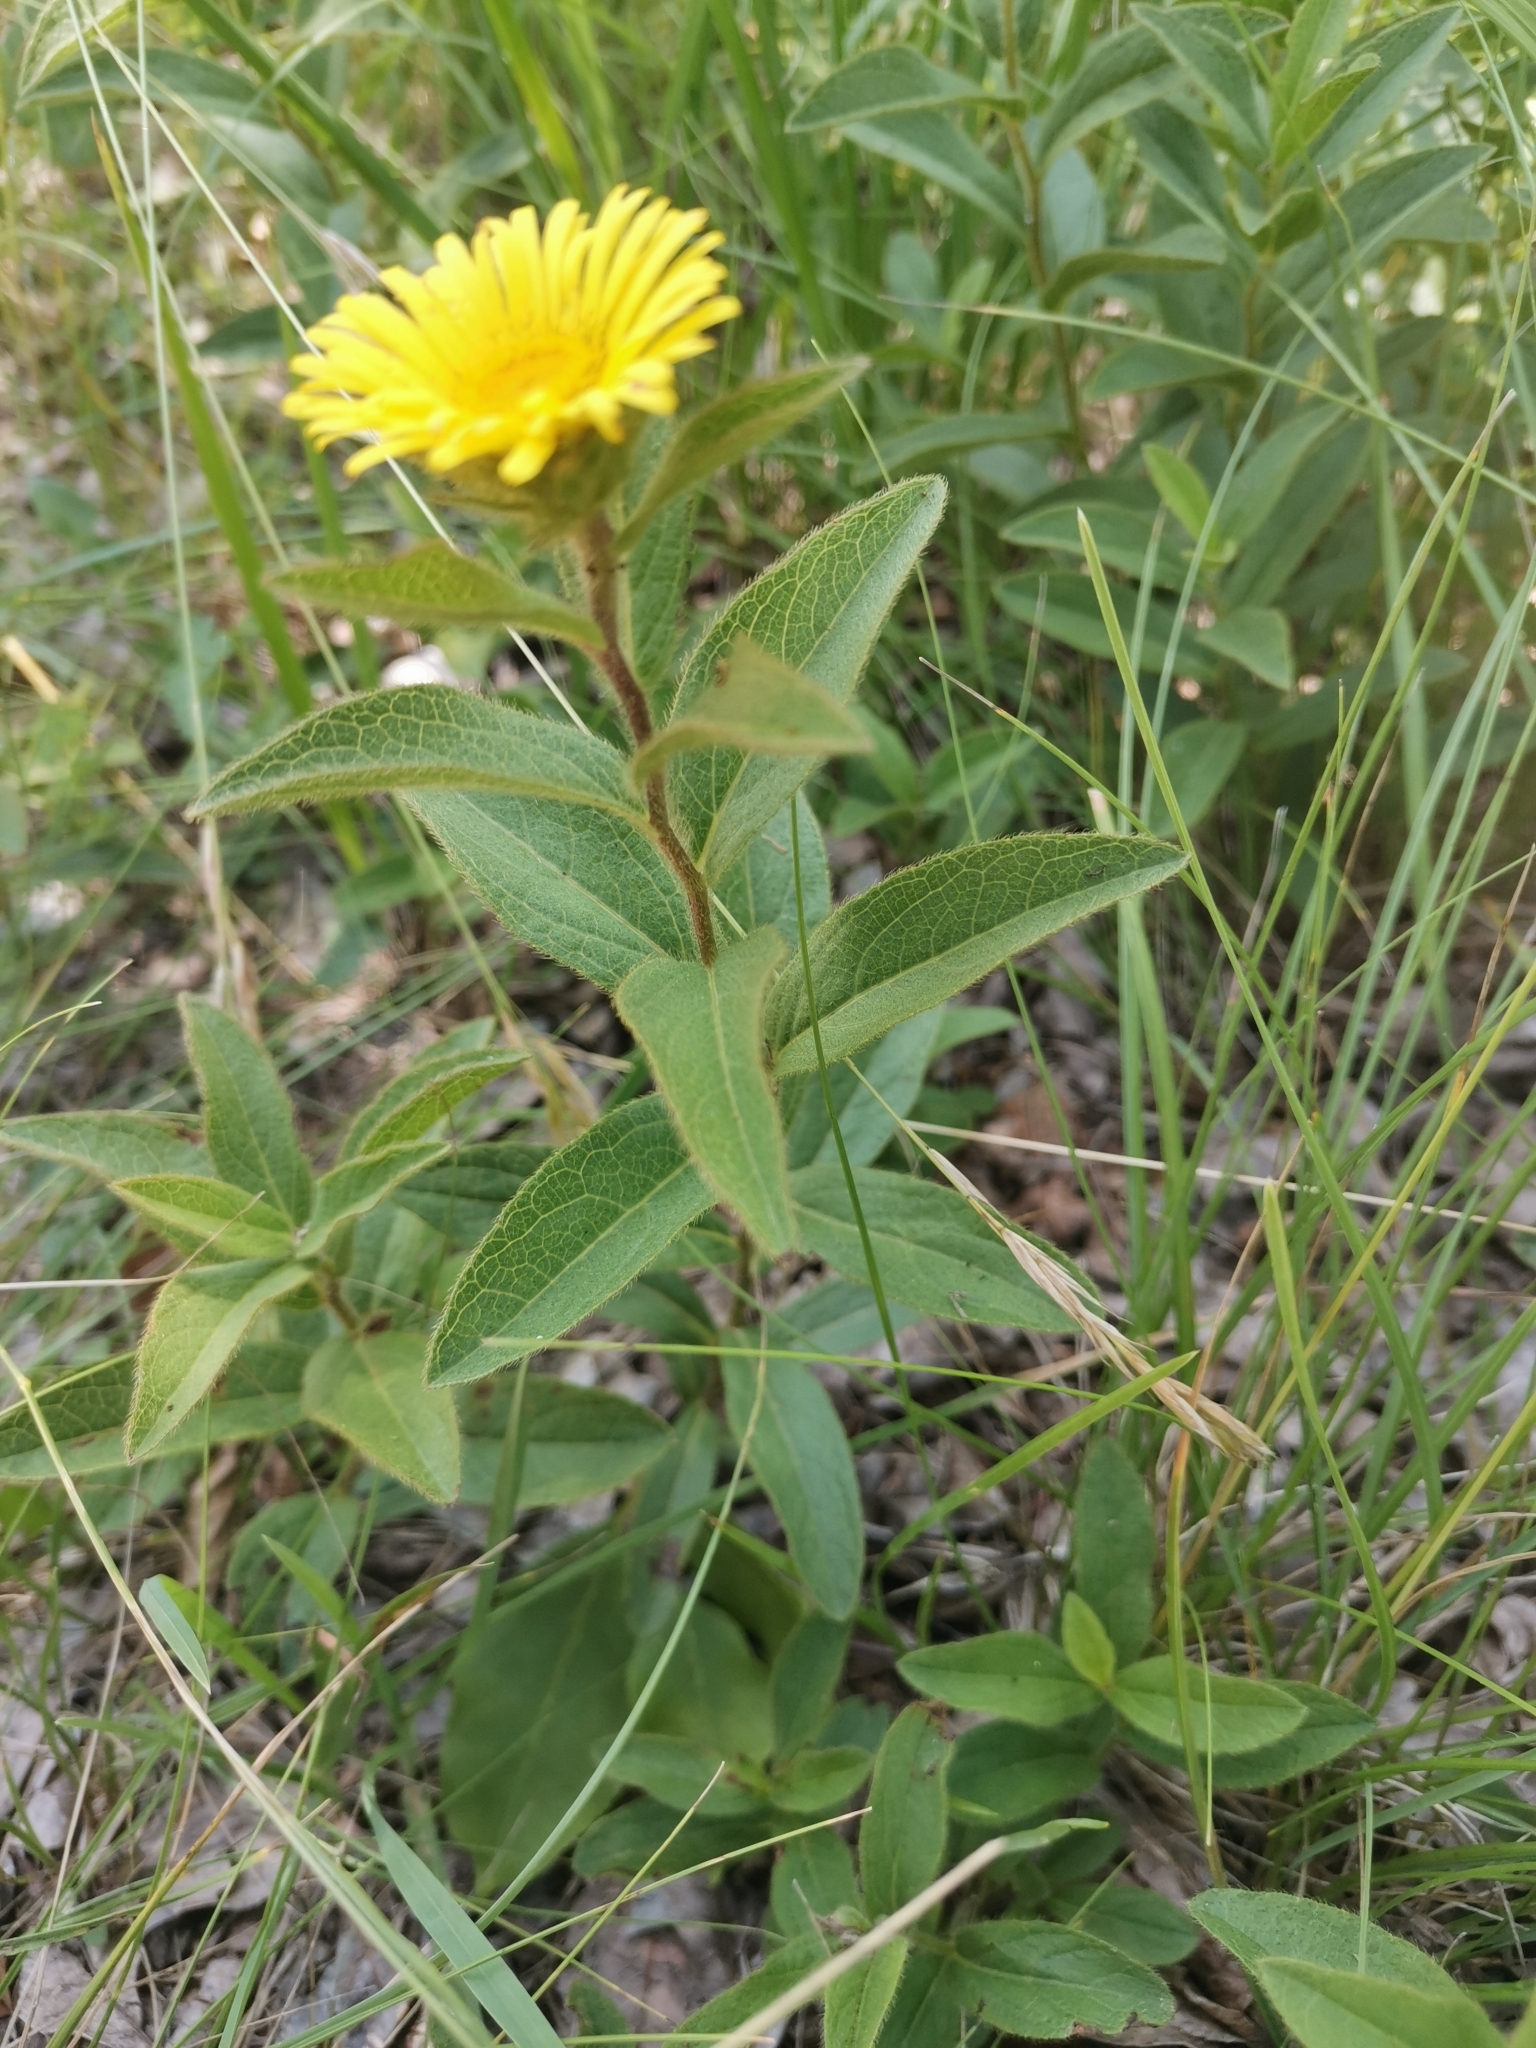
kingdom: Plantae
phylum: Tracheophyta
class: Magnoliopsida
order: Asterales
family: Asteraceae
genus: Pentanema
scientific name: Pentanema hirtum
